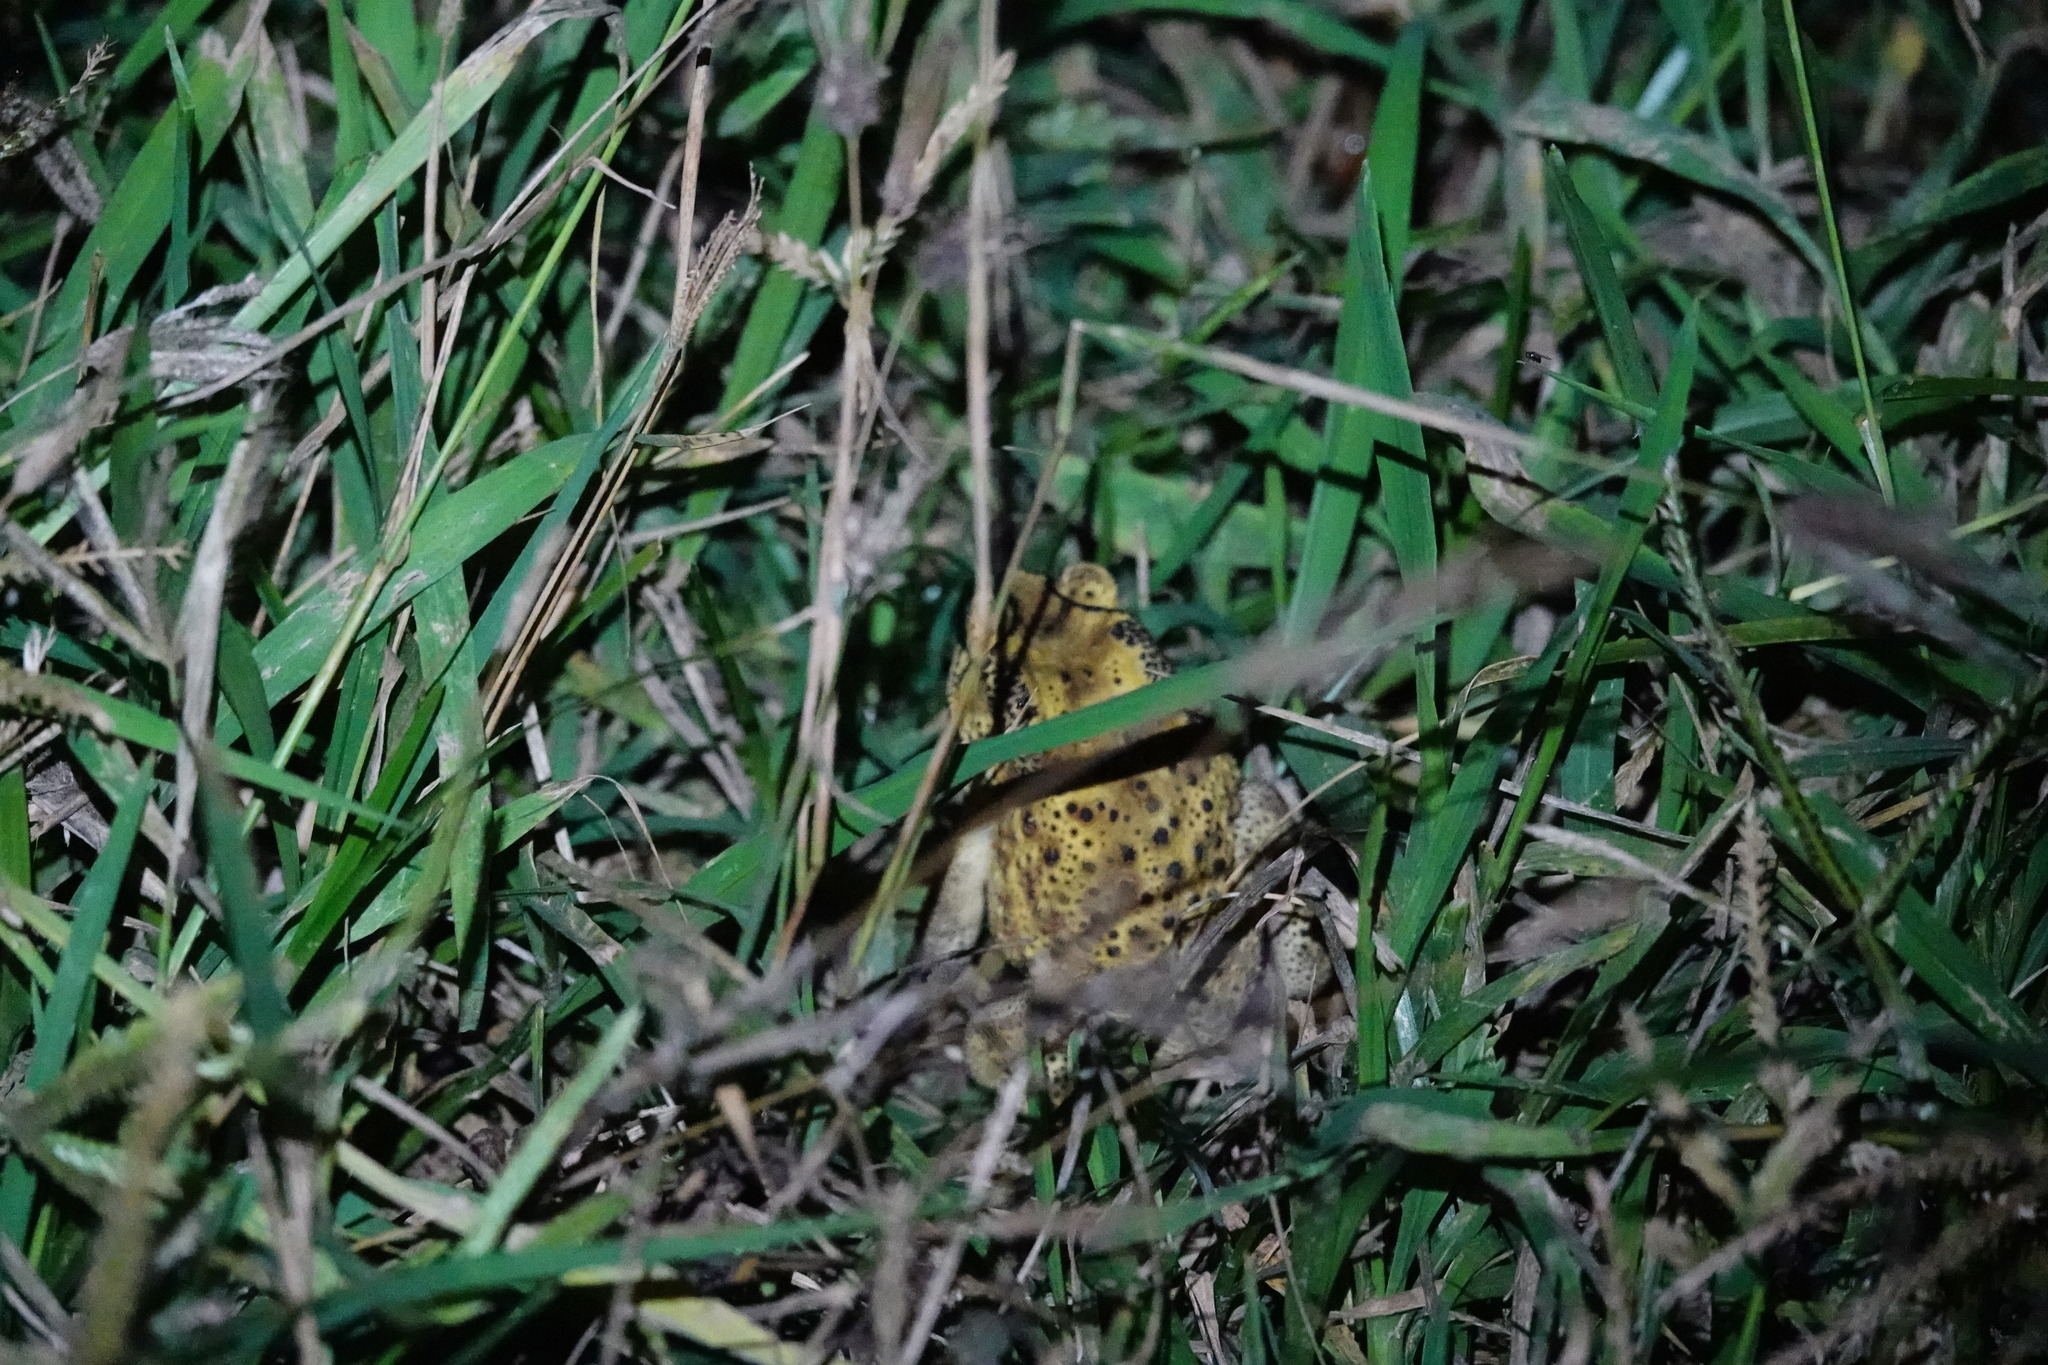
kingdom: Animalia
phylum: Chordata
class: Amphibia
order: Anura
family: Bufonidae
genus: Duttaphrynus
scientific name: Duttaphrynus melanostictus
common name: Common sunda toad
